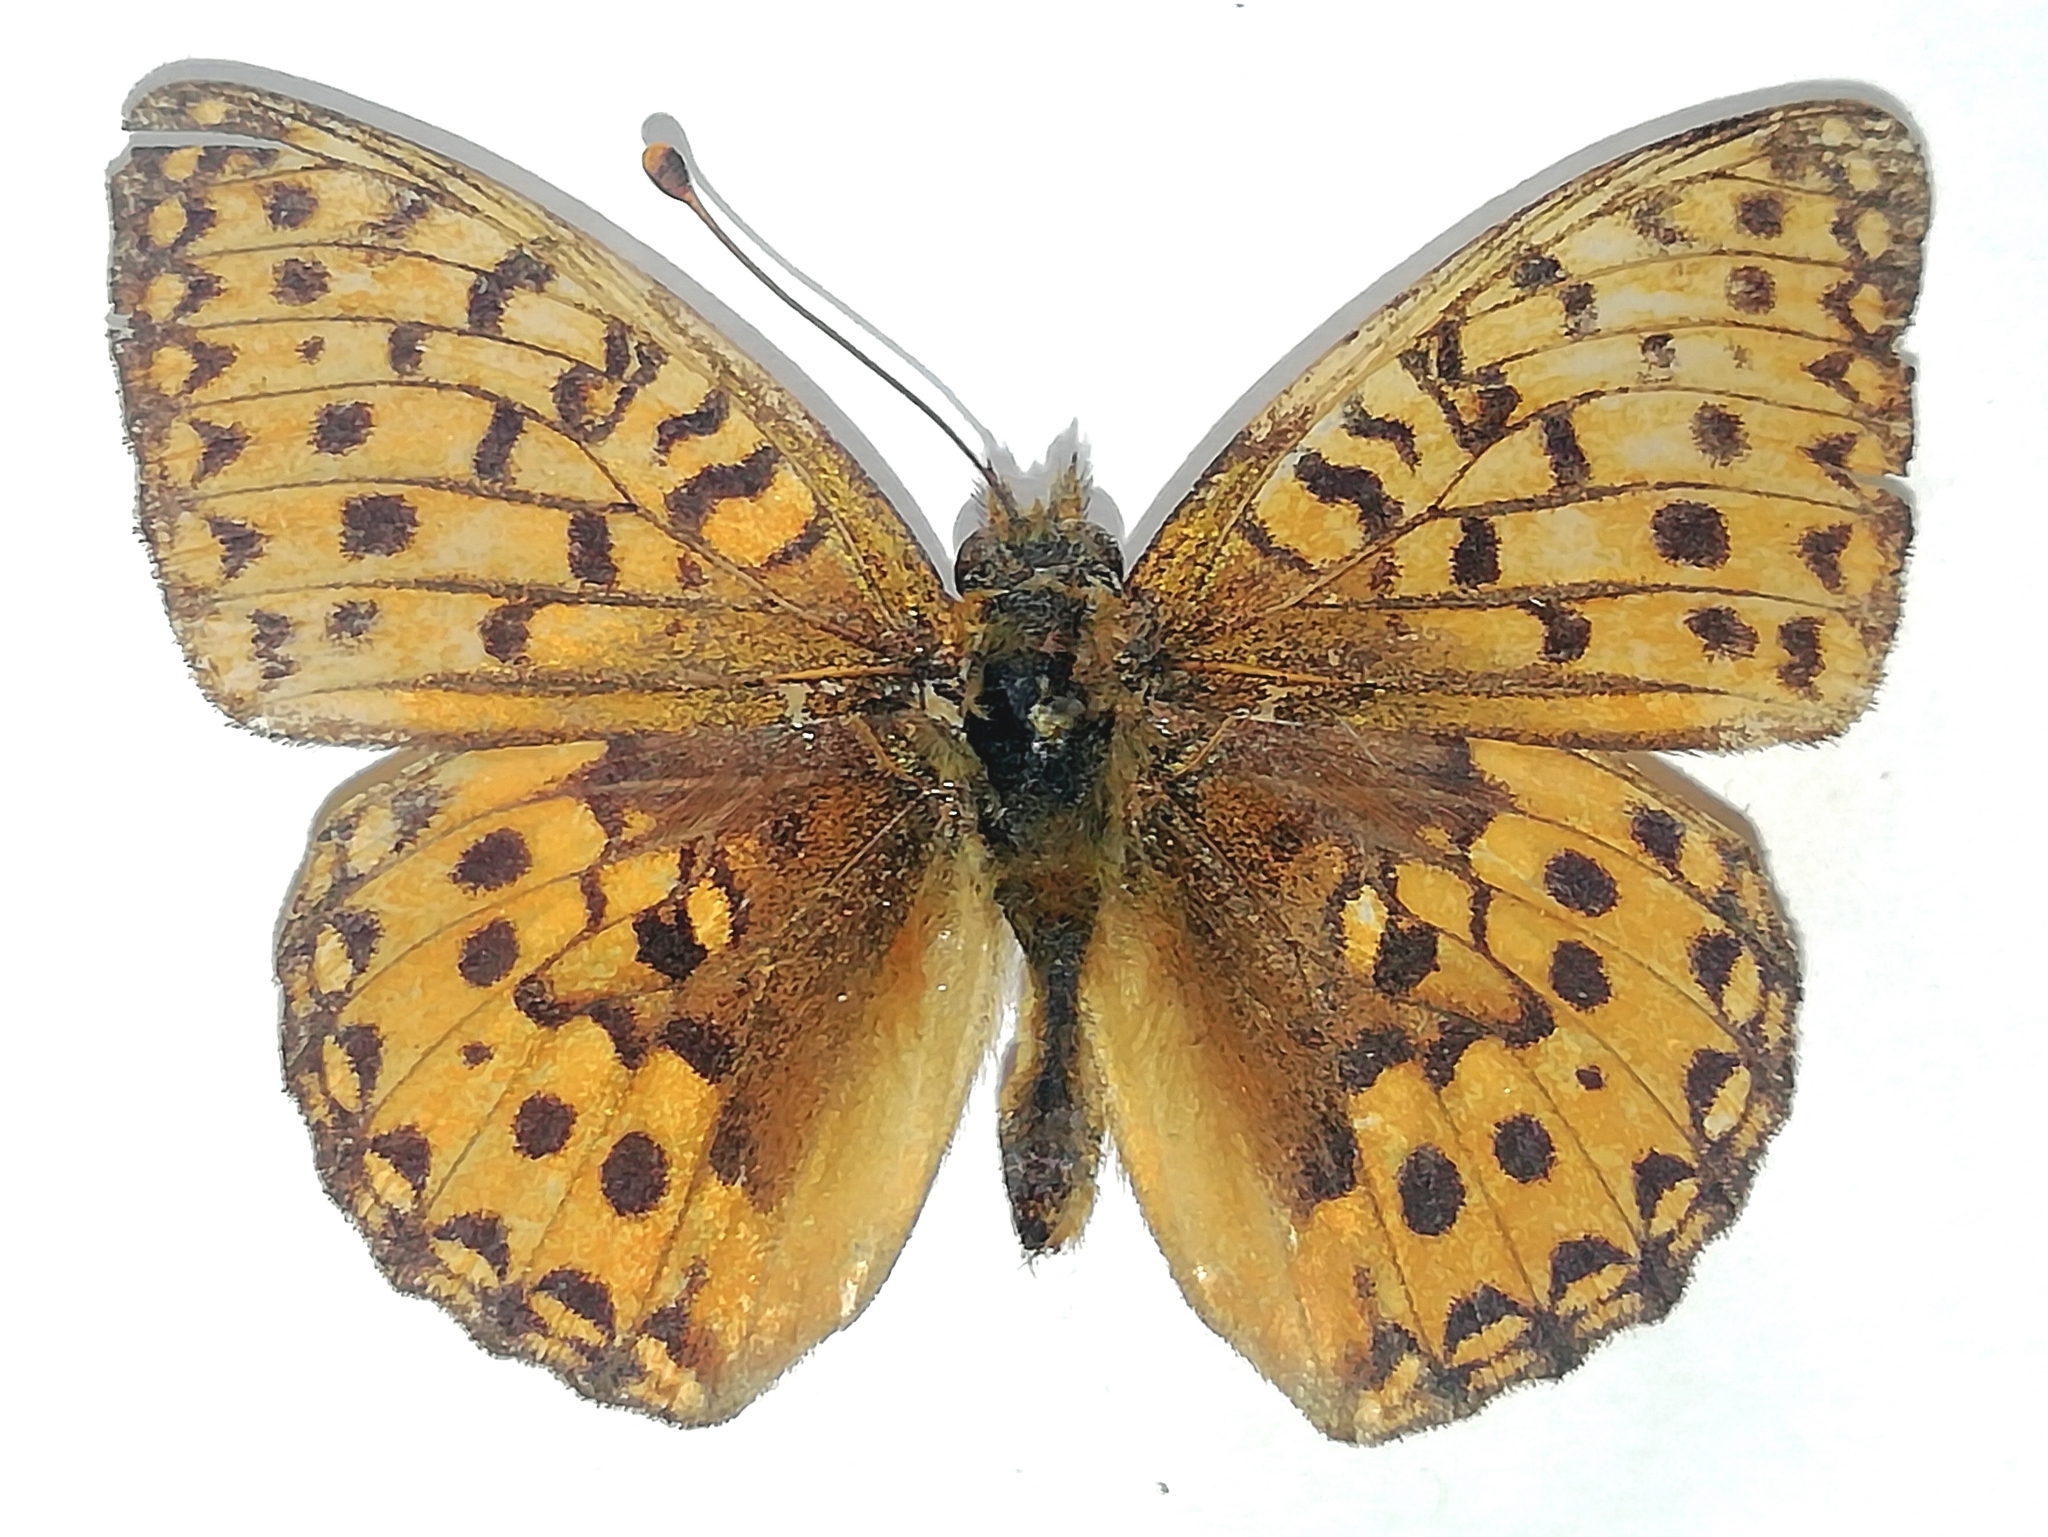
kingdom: Animalia
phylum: Arthropoda
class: Insecta
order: Lepidoptera
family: Nymphalidae
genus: Speyeria
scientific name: Speyeria aglaja
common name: Dark green fritillary
